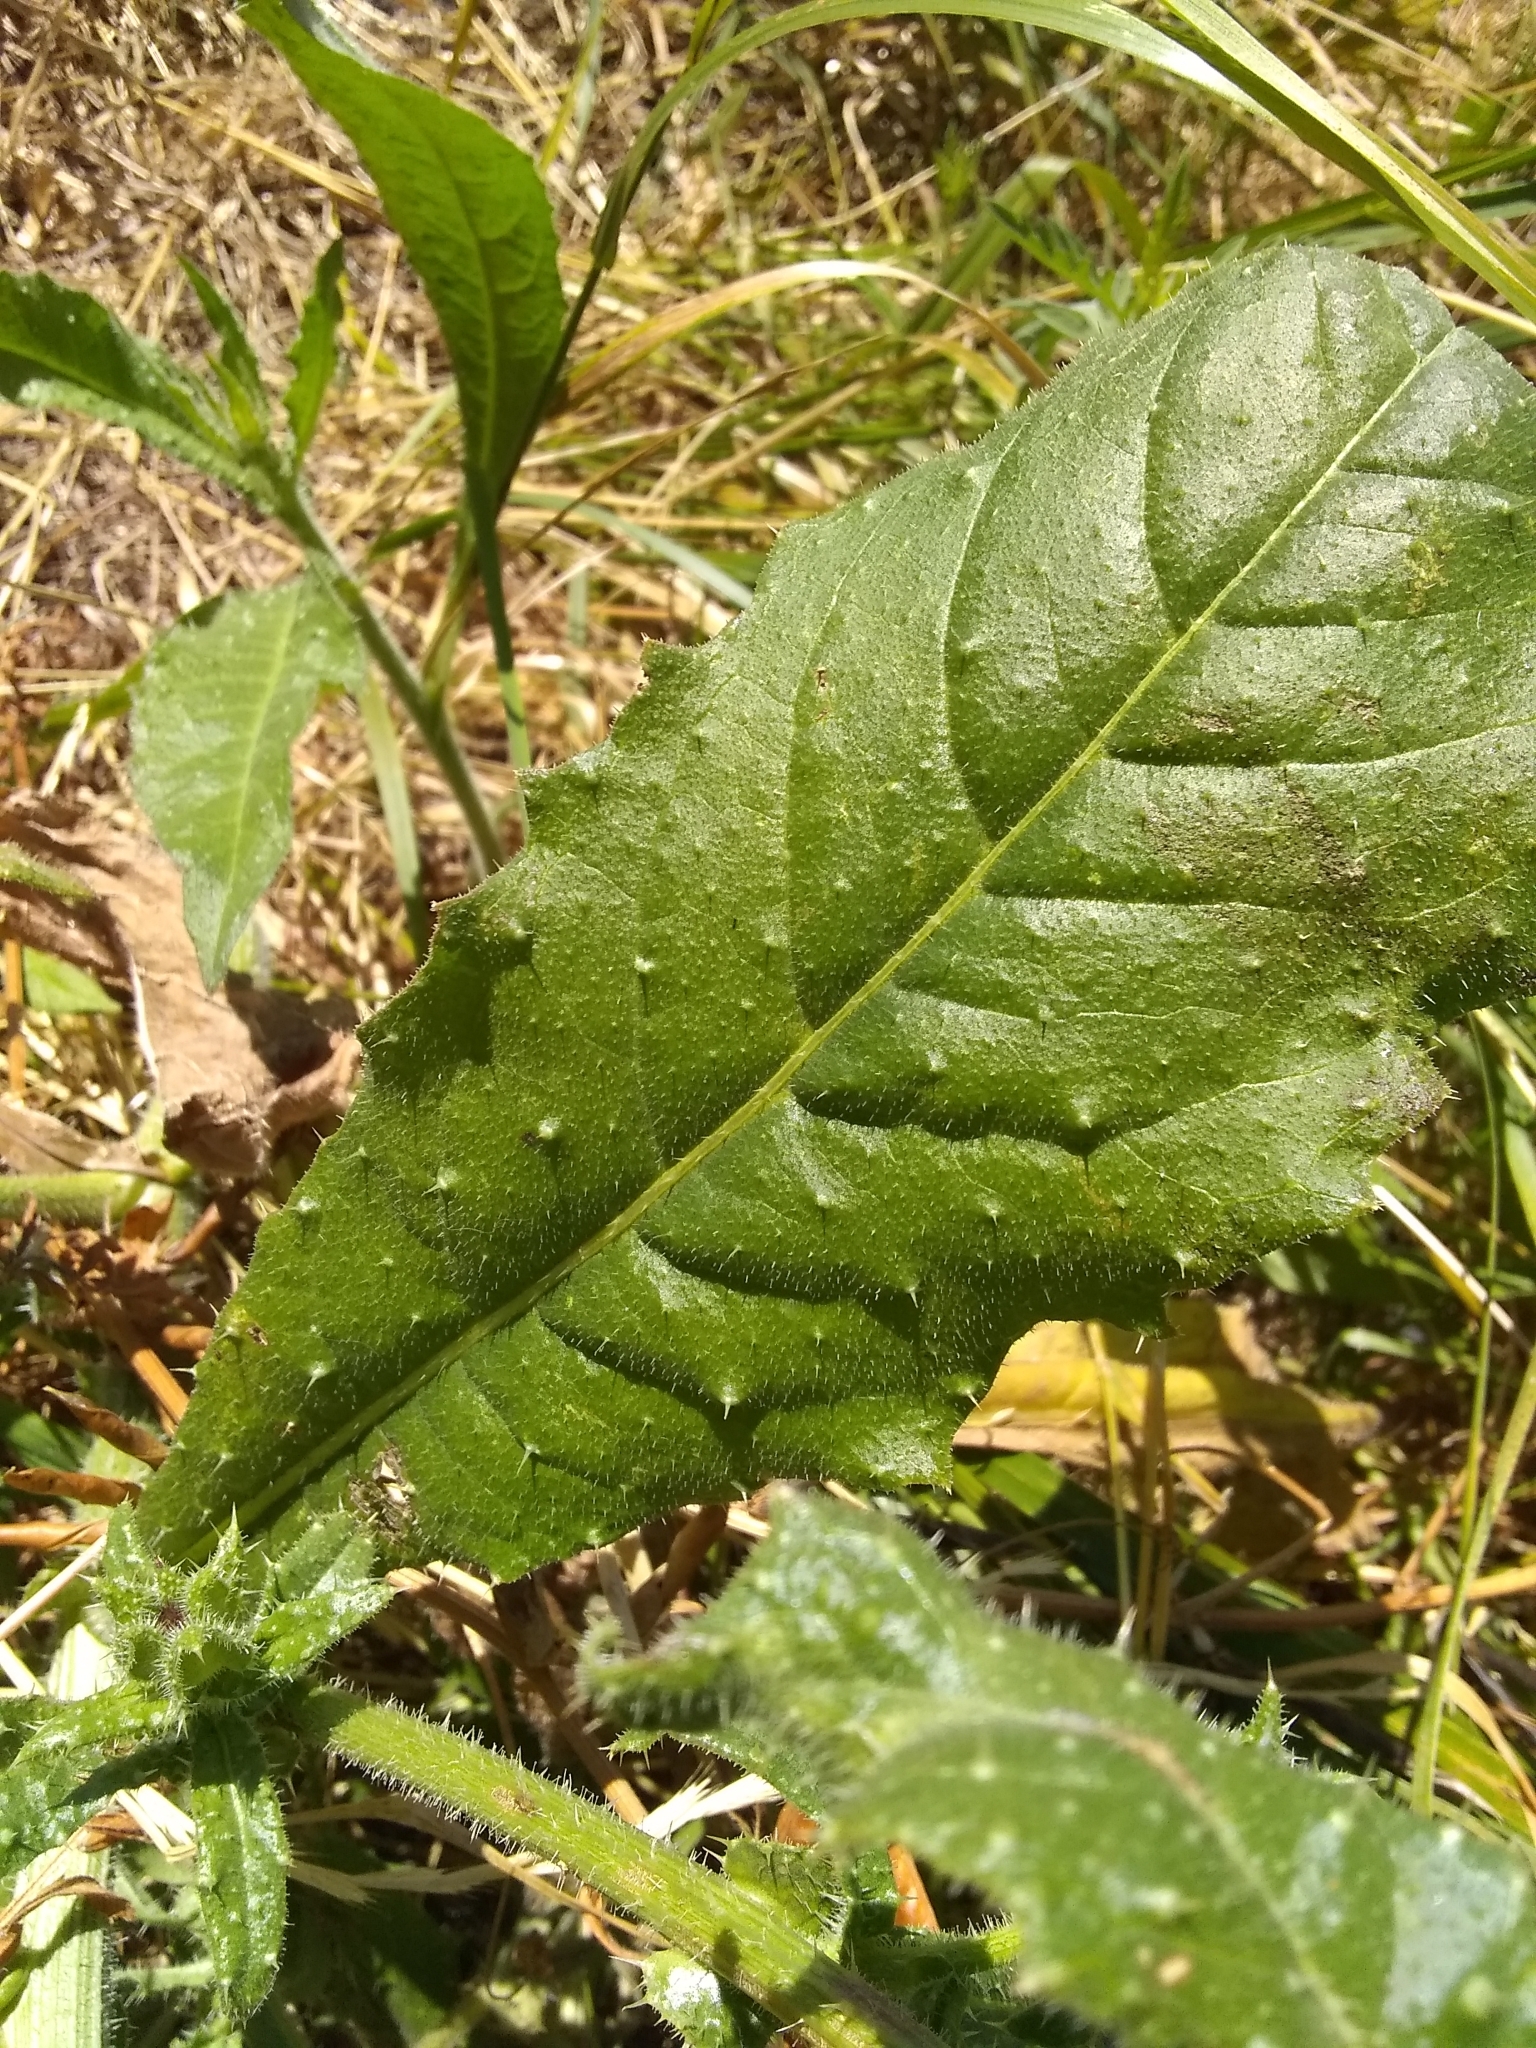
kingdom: Plantae
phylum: Tracheophyta
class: Magnoliopsida
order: Asterales
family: Asteraceae
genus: Helminthotheca
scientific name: Helminthotheca echioides
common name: Ox-tongue
